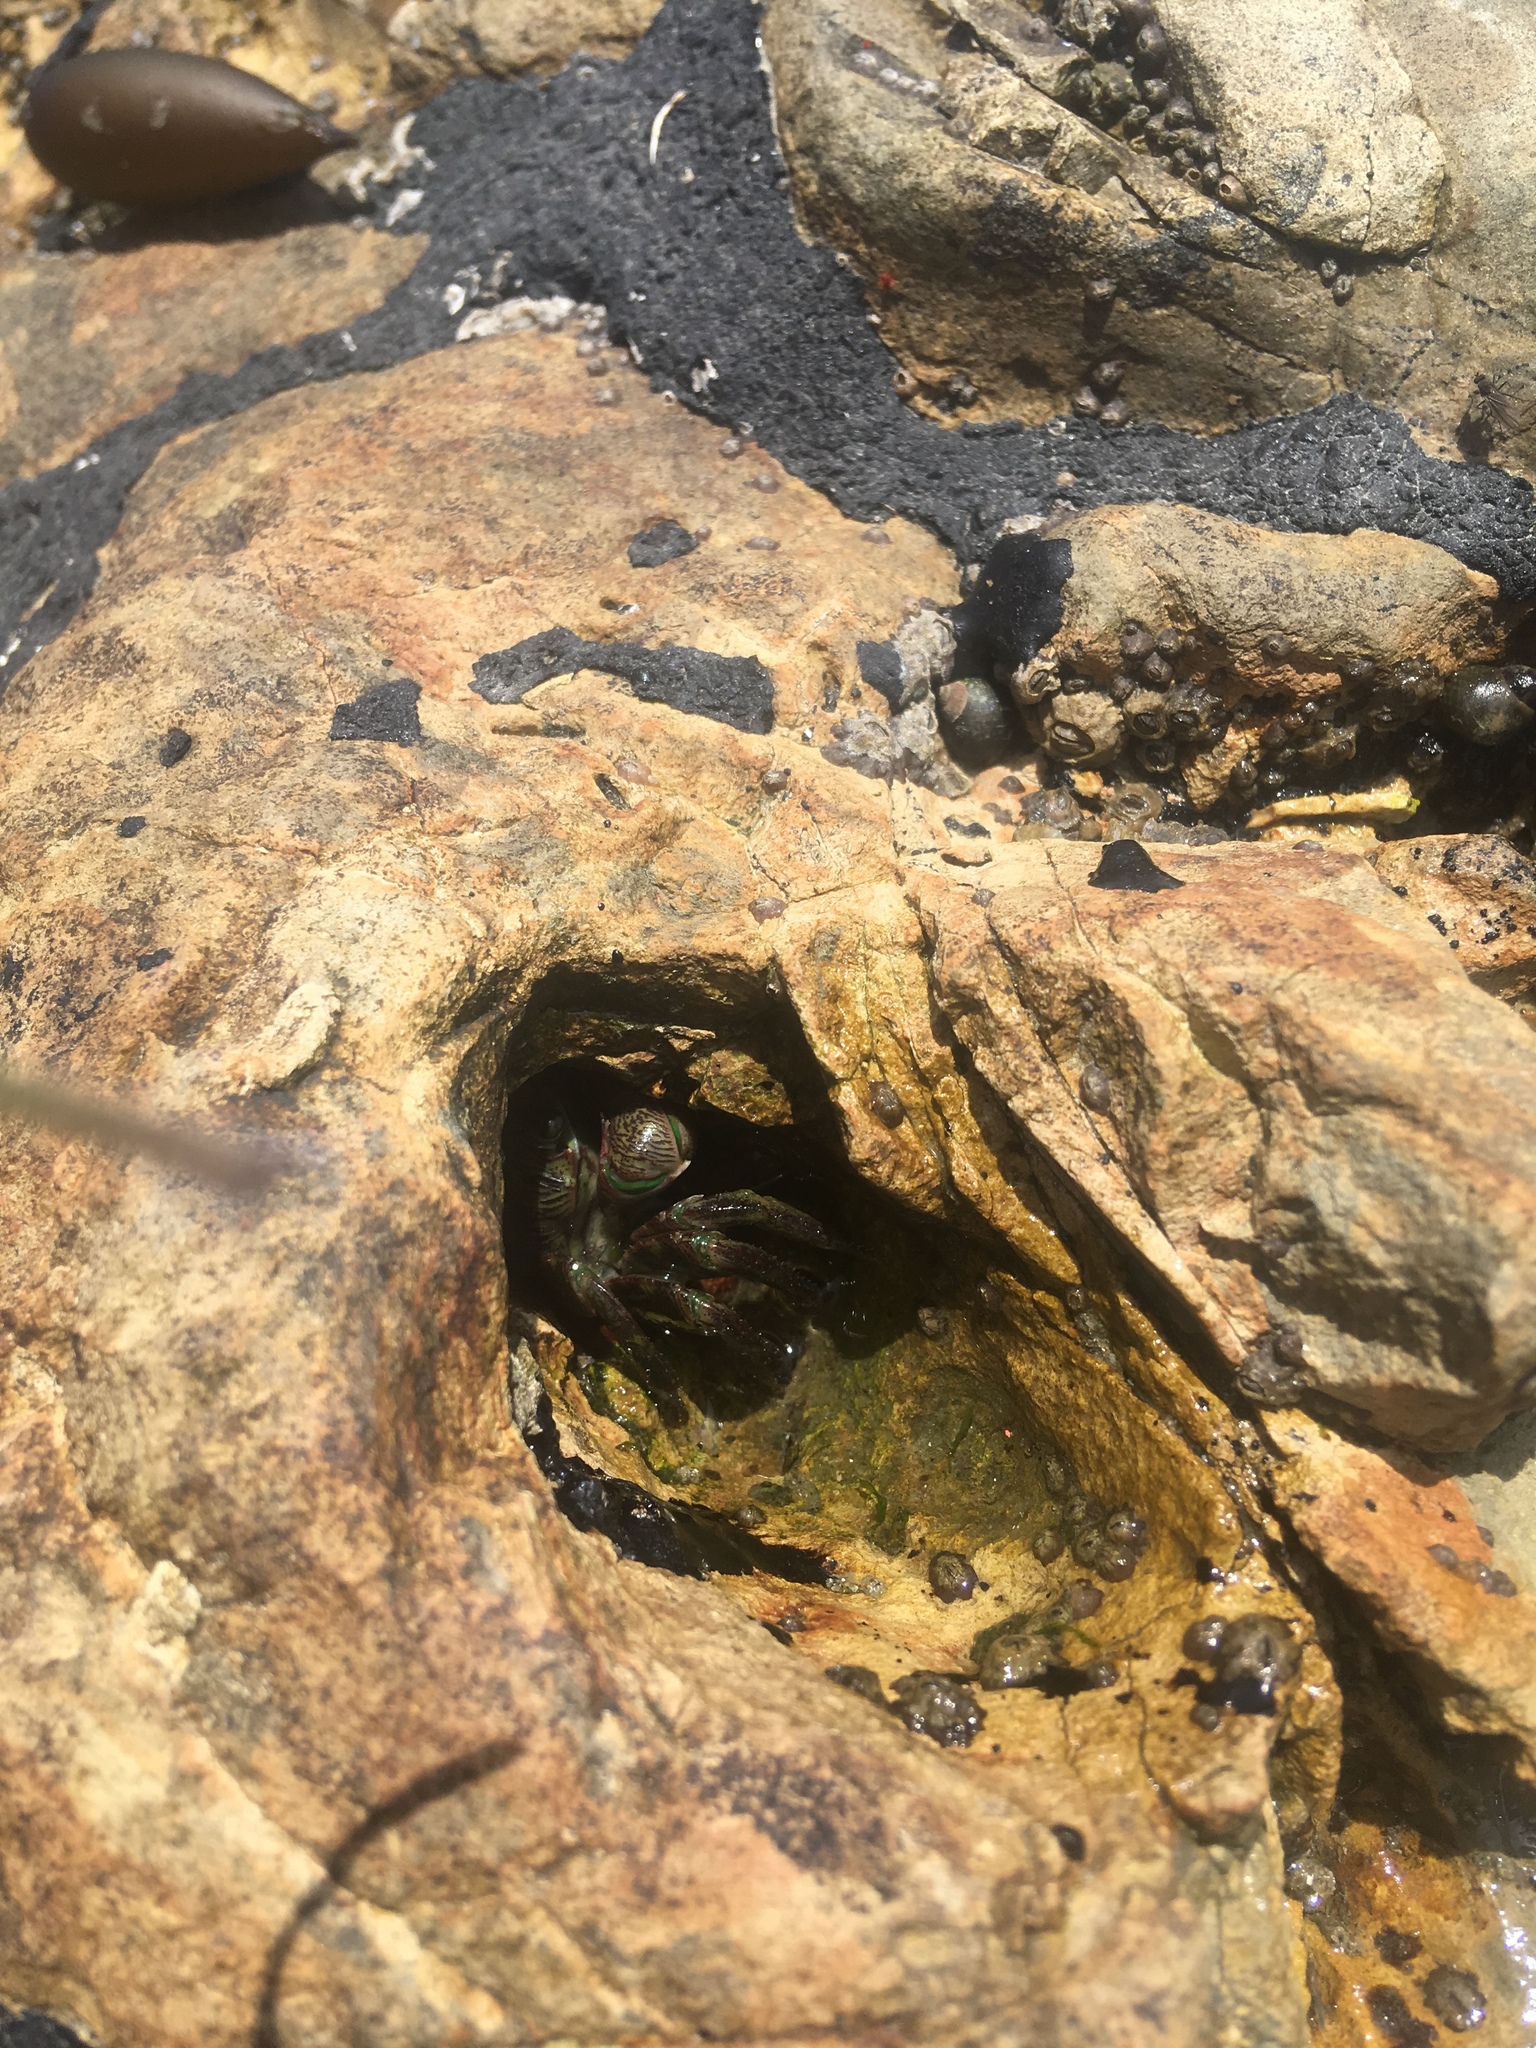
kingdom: Animalia
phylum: Arthropoda
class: Malacostraca
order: Decapoda
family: Grapsidae
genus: Pachygrapsus
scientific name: Pachygrapsus crassipes
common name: Striped shore crab
